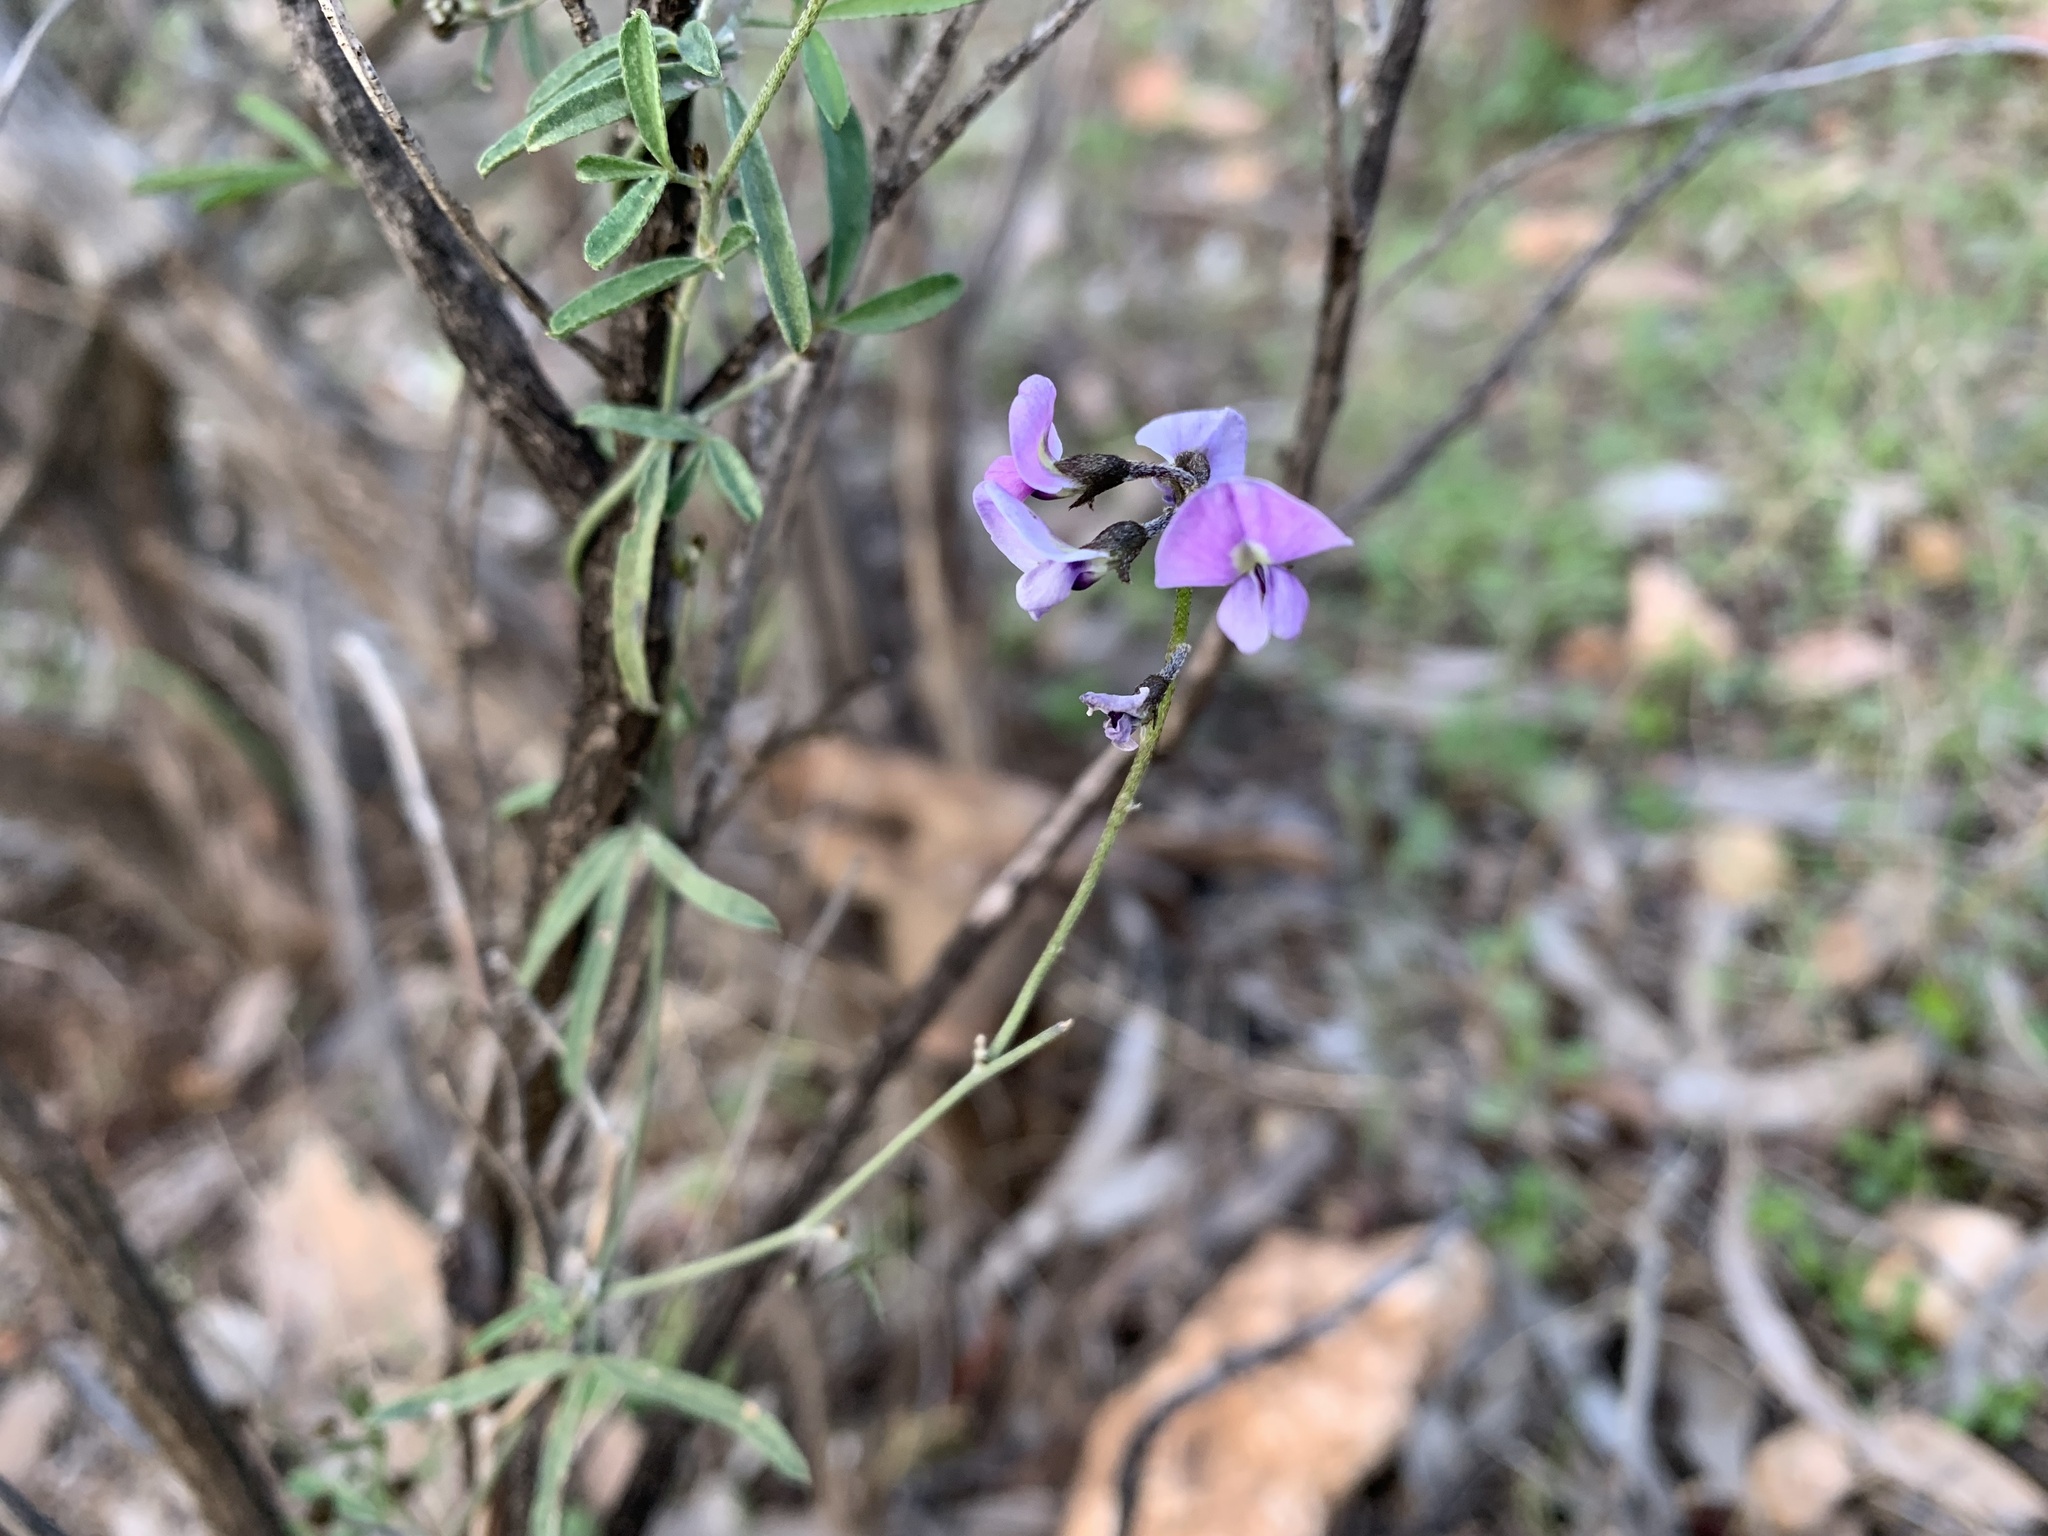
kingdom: Plantae
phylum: Tracheophyta
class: Magnoliopsida
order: Fabales
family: Fabaceae
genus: Glycine
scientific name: Glycine rubiginosa
